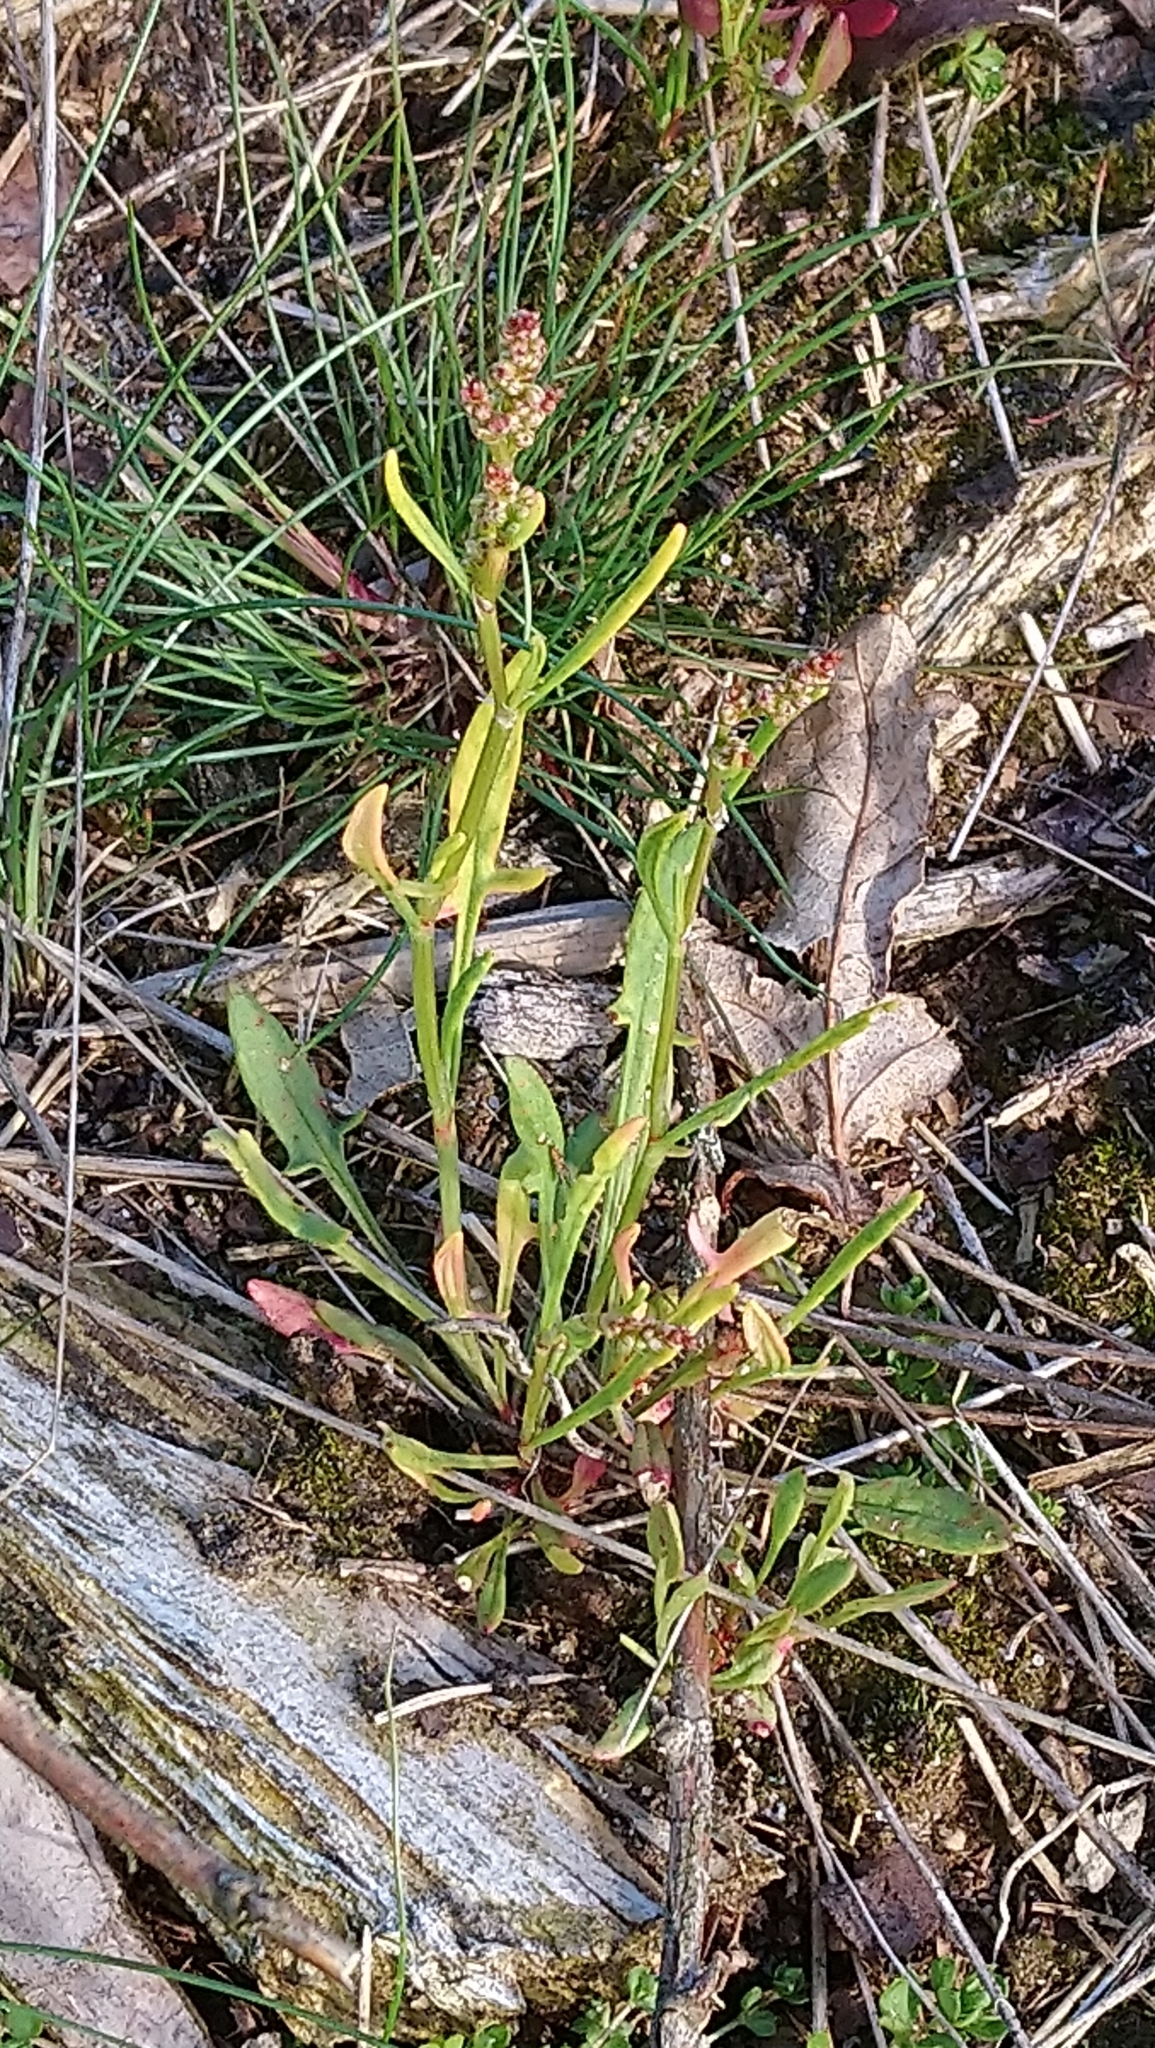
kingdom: Plantae
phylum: Tracheophyta
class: Magnoliopsida
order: Caryophyllales
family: Polygonaceae
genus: Rumex
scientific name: Rumex acetosella
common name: Common sheep sorrel
